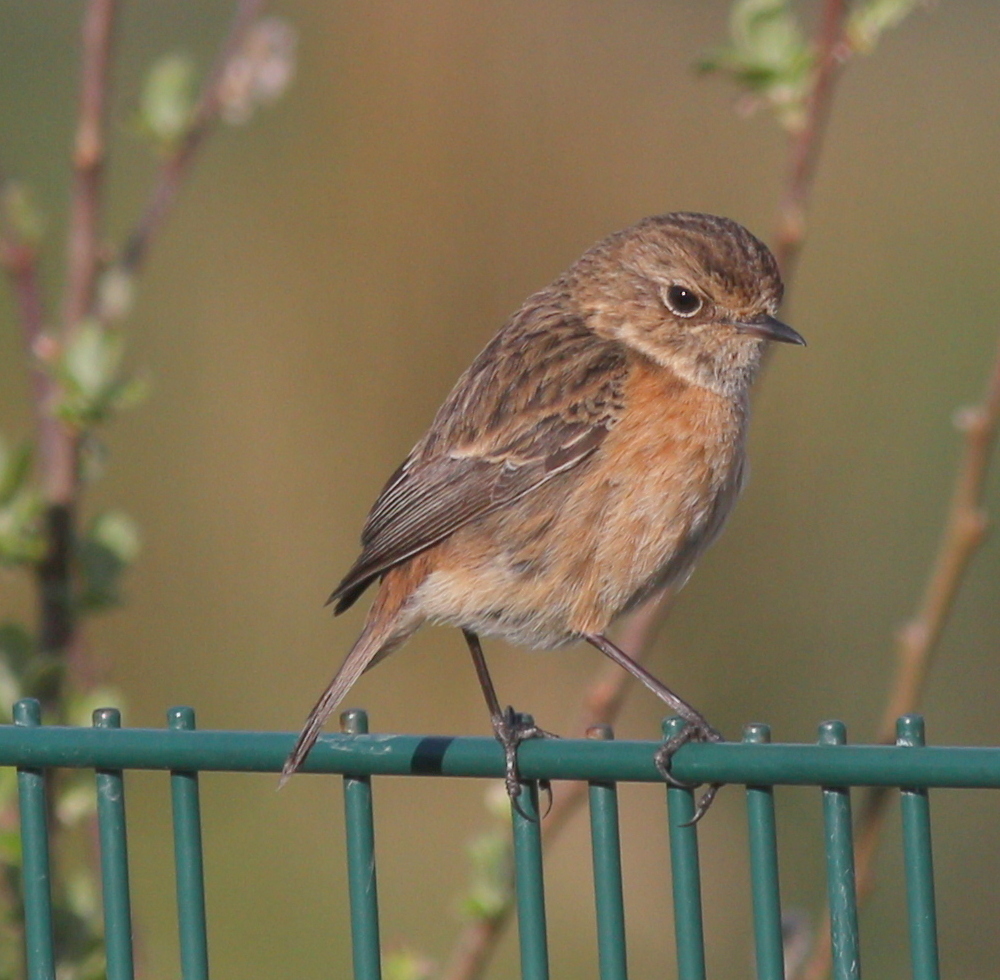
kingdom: Animalia
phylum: Chordata
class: Aves
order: Passeriformes
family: Muscicapidae
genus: Saxicola
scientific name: Saxicola rubicola
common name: European stonechat
